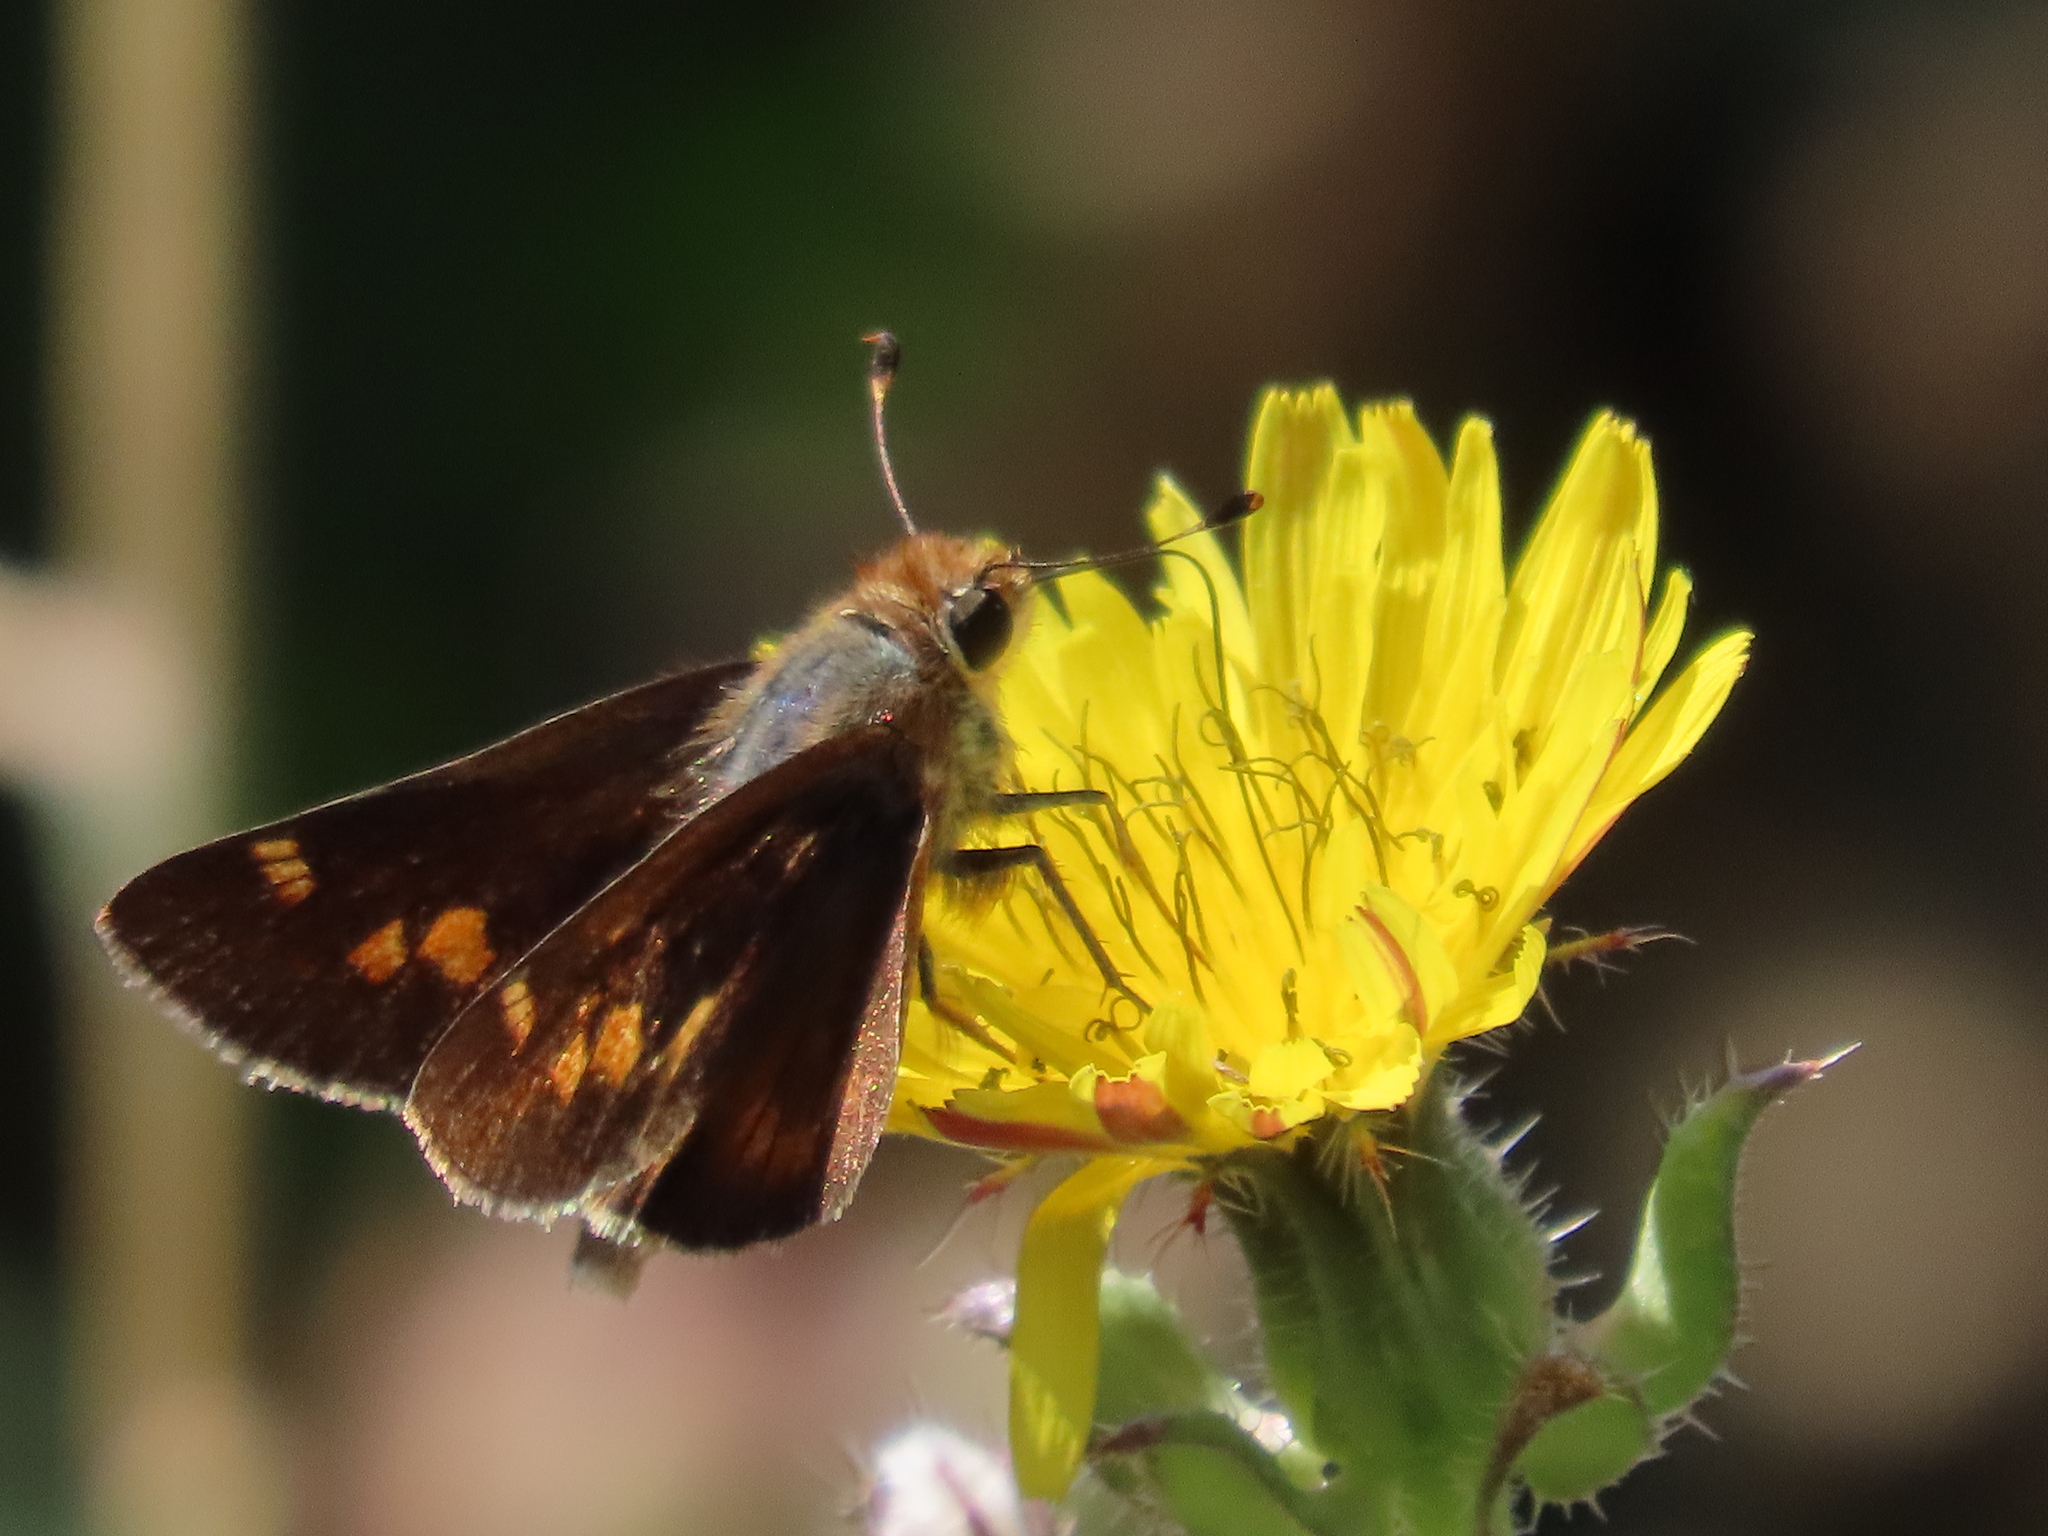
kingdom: Animalia
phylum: Arthropoda
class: Insecta
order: Lepidoptera
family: Hesperiidae
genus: Lon
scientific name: Lon melane
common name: Umber skipper
